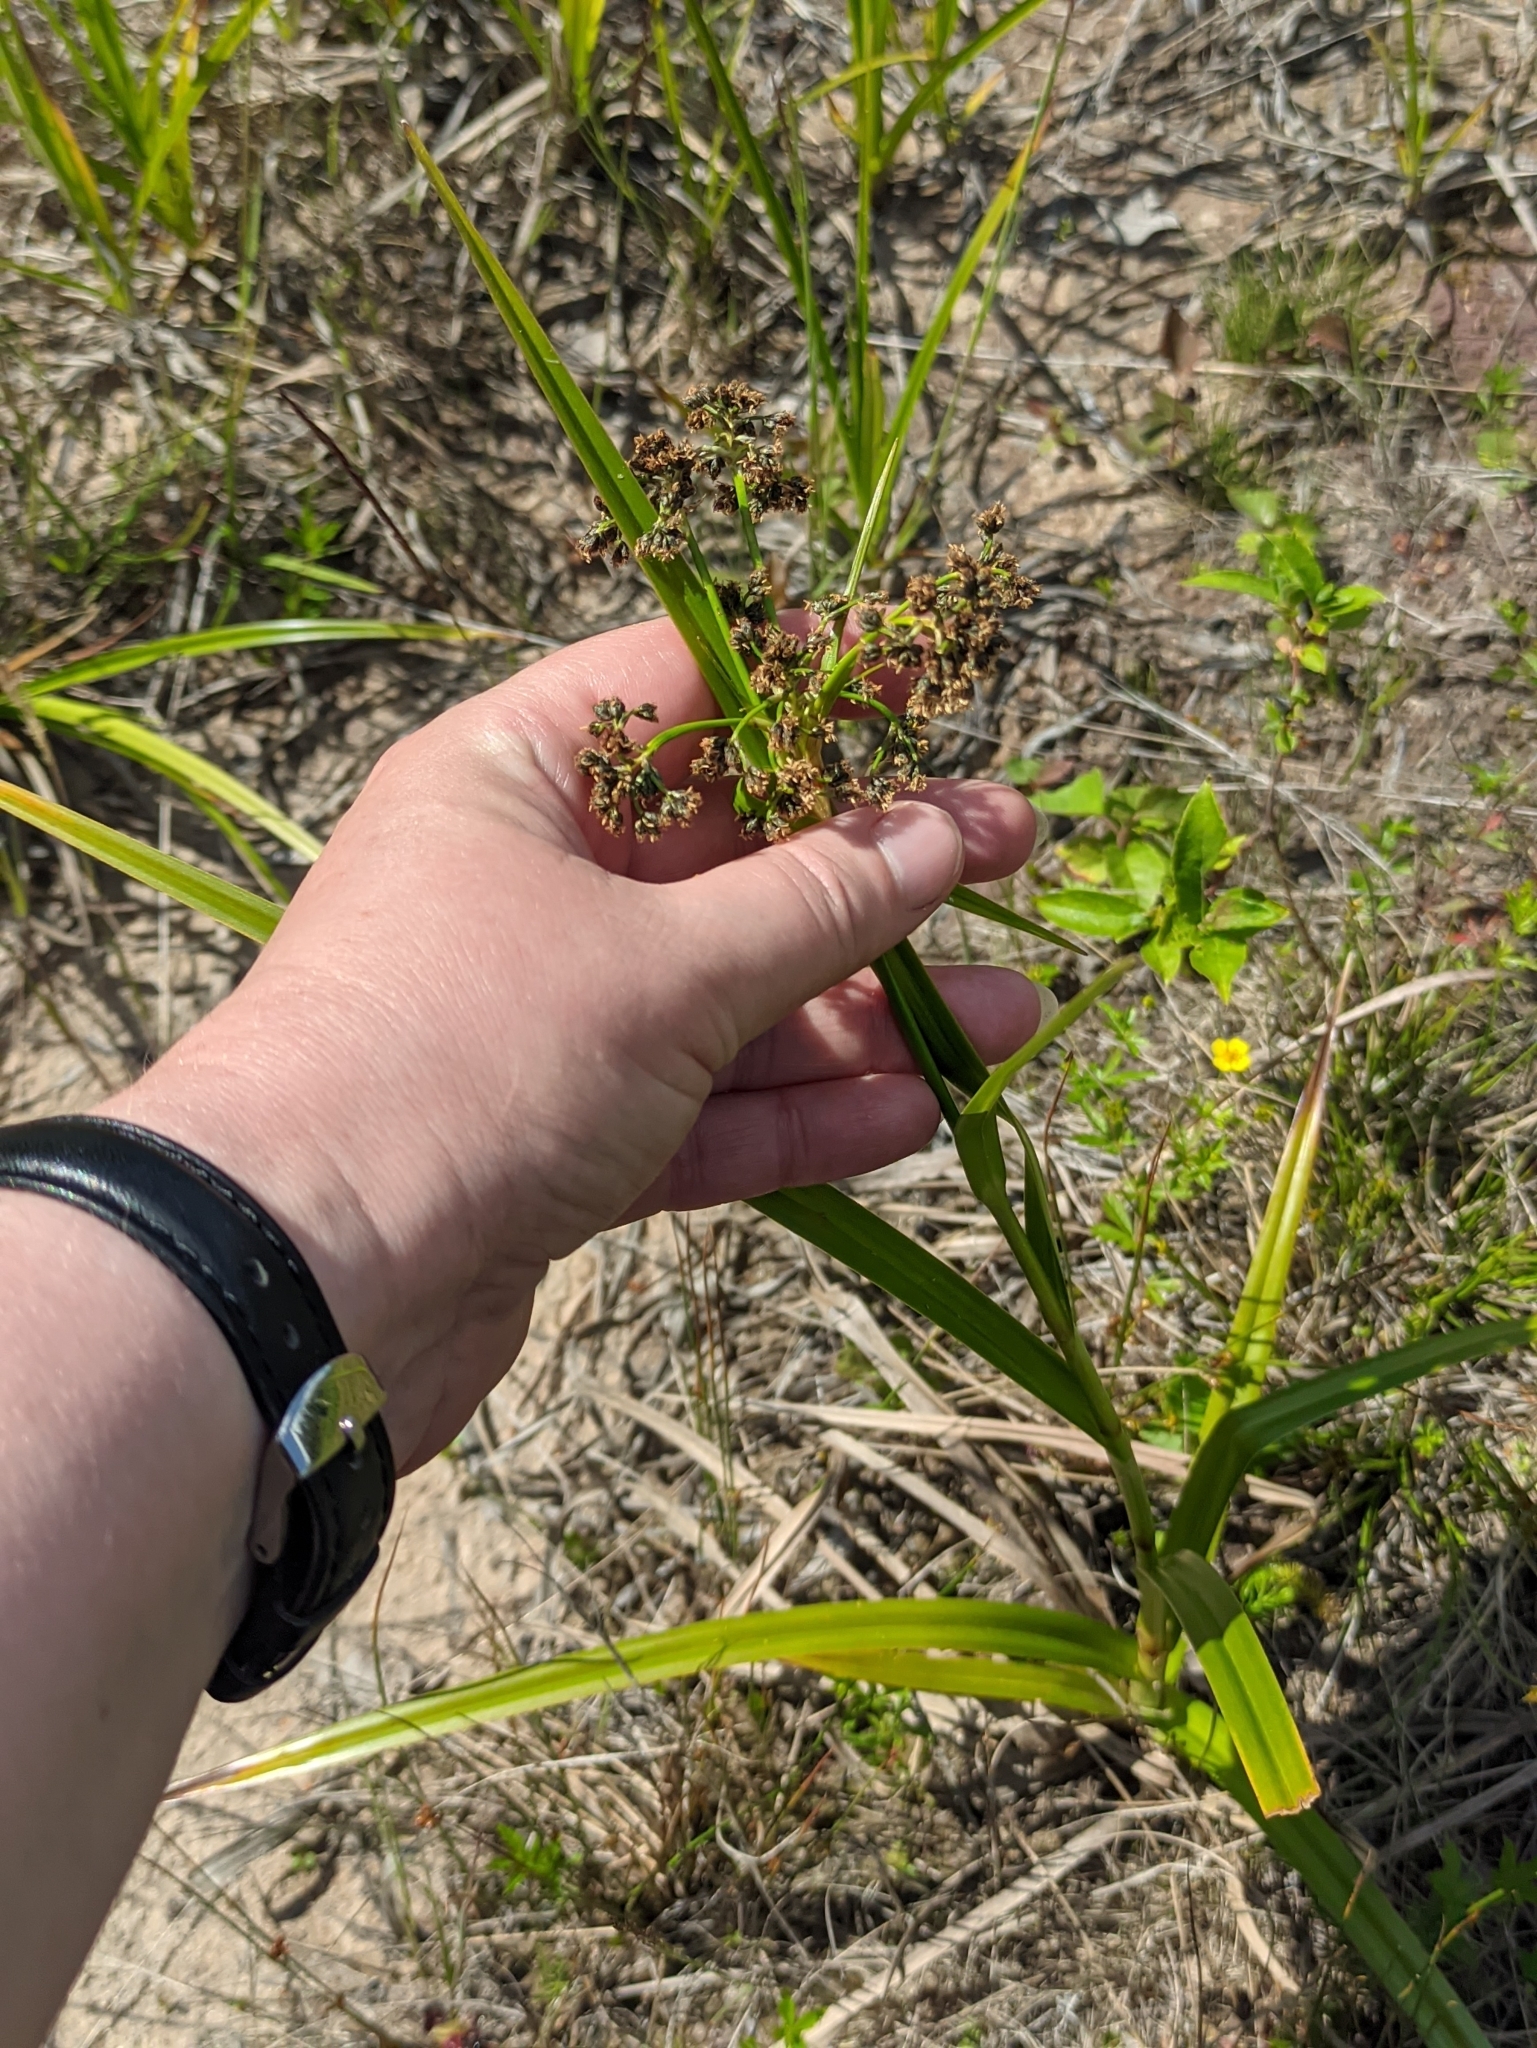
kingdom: Plantae
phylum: Tracheophyta
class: Liliopsida
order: Poales
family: Cyperaceae
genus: Scirpus
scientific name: Scirpus sylvaticus
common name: Wood club-rush
